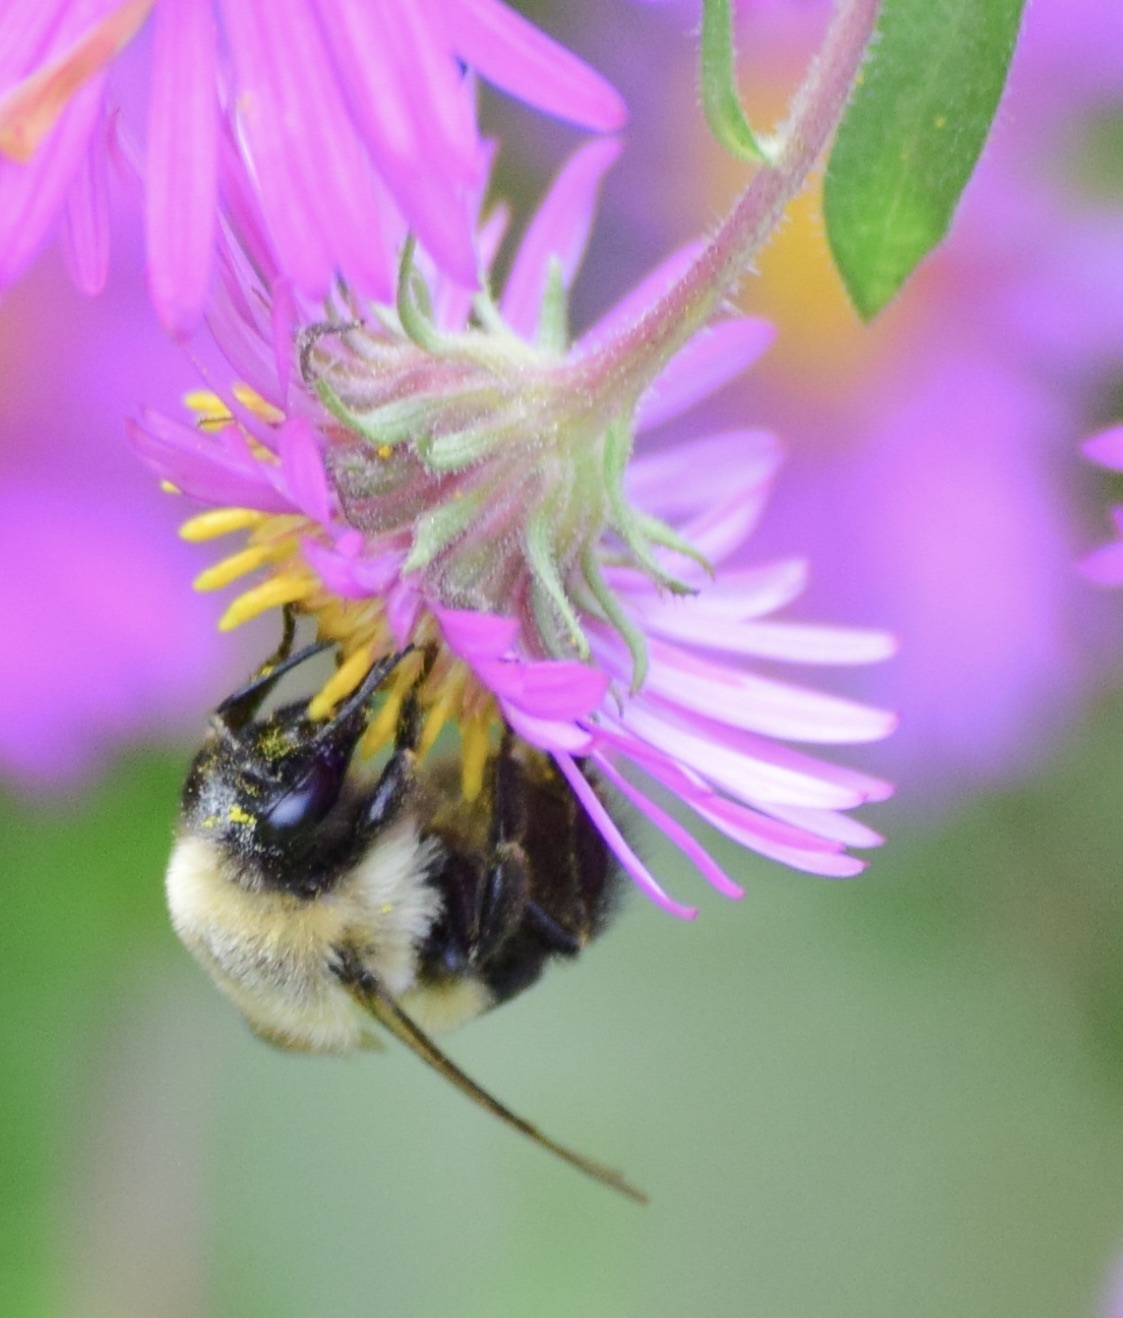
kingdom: Animalia
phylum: Arthropoda
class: Insecta
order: Hymenoptera
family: Apidae
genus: Bombus
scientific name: Bombus impatiens
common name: Common eastern bumble bee
